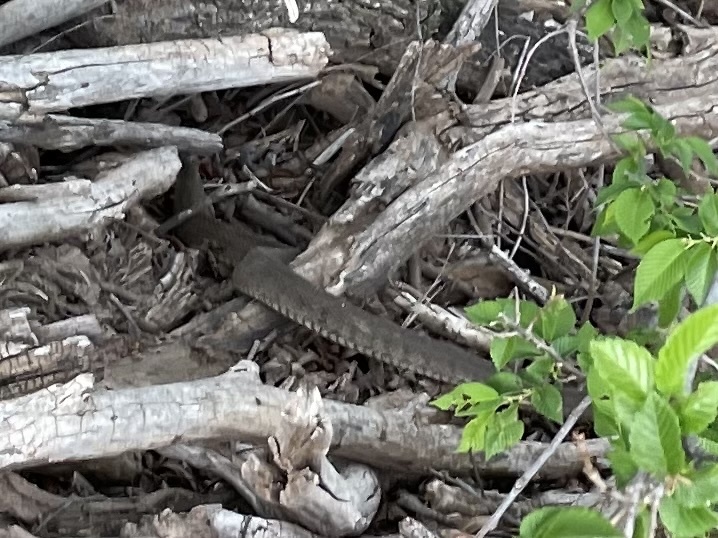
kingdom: Animalia
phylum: Chordata
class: Squamata
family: Colubridae
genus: Nerodia
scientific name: Nerodia erythrogaster
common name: Plainbelly water snake
